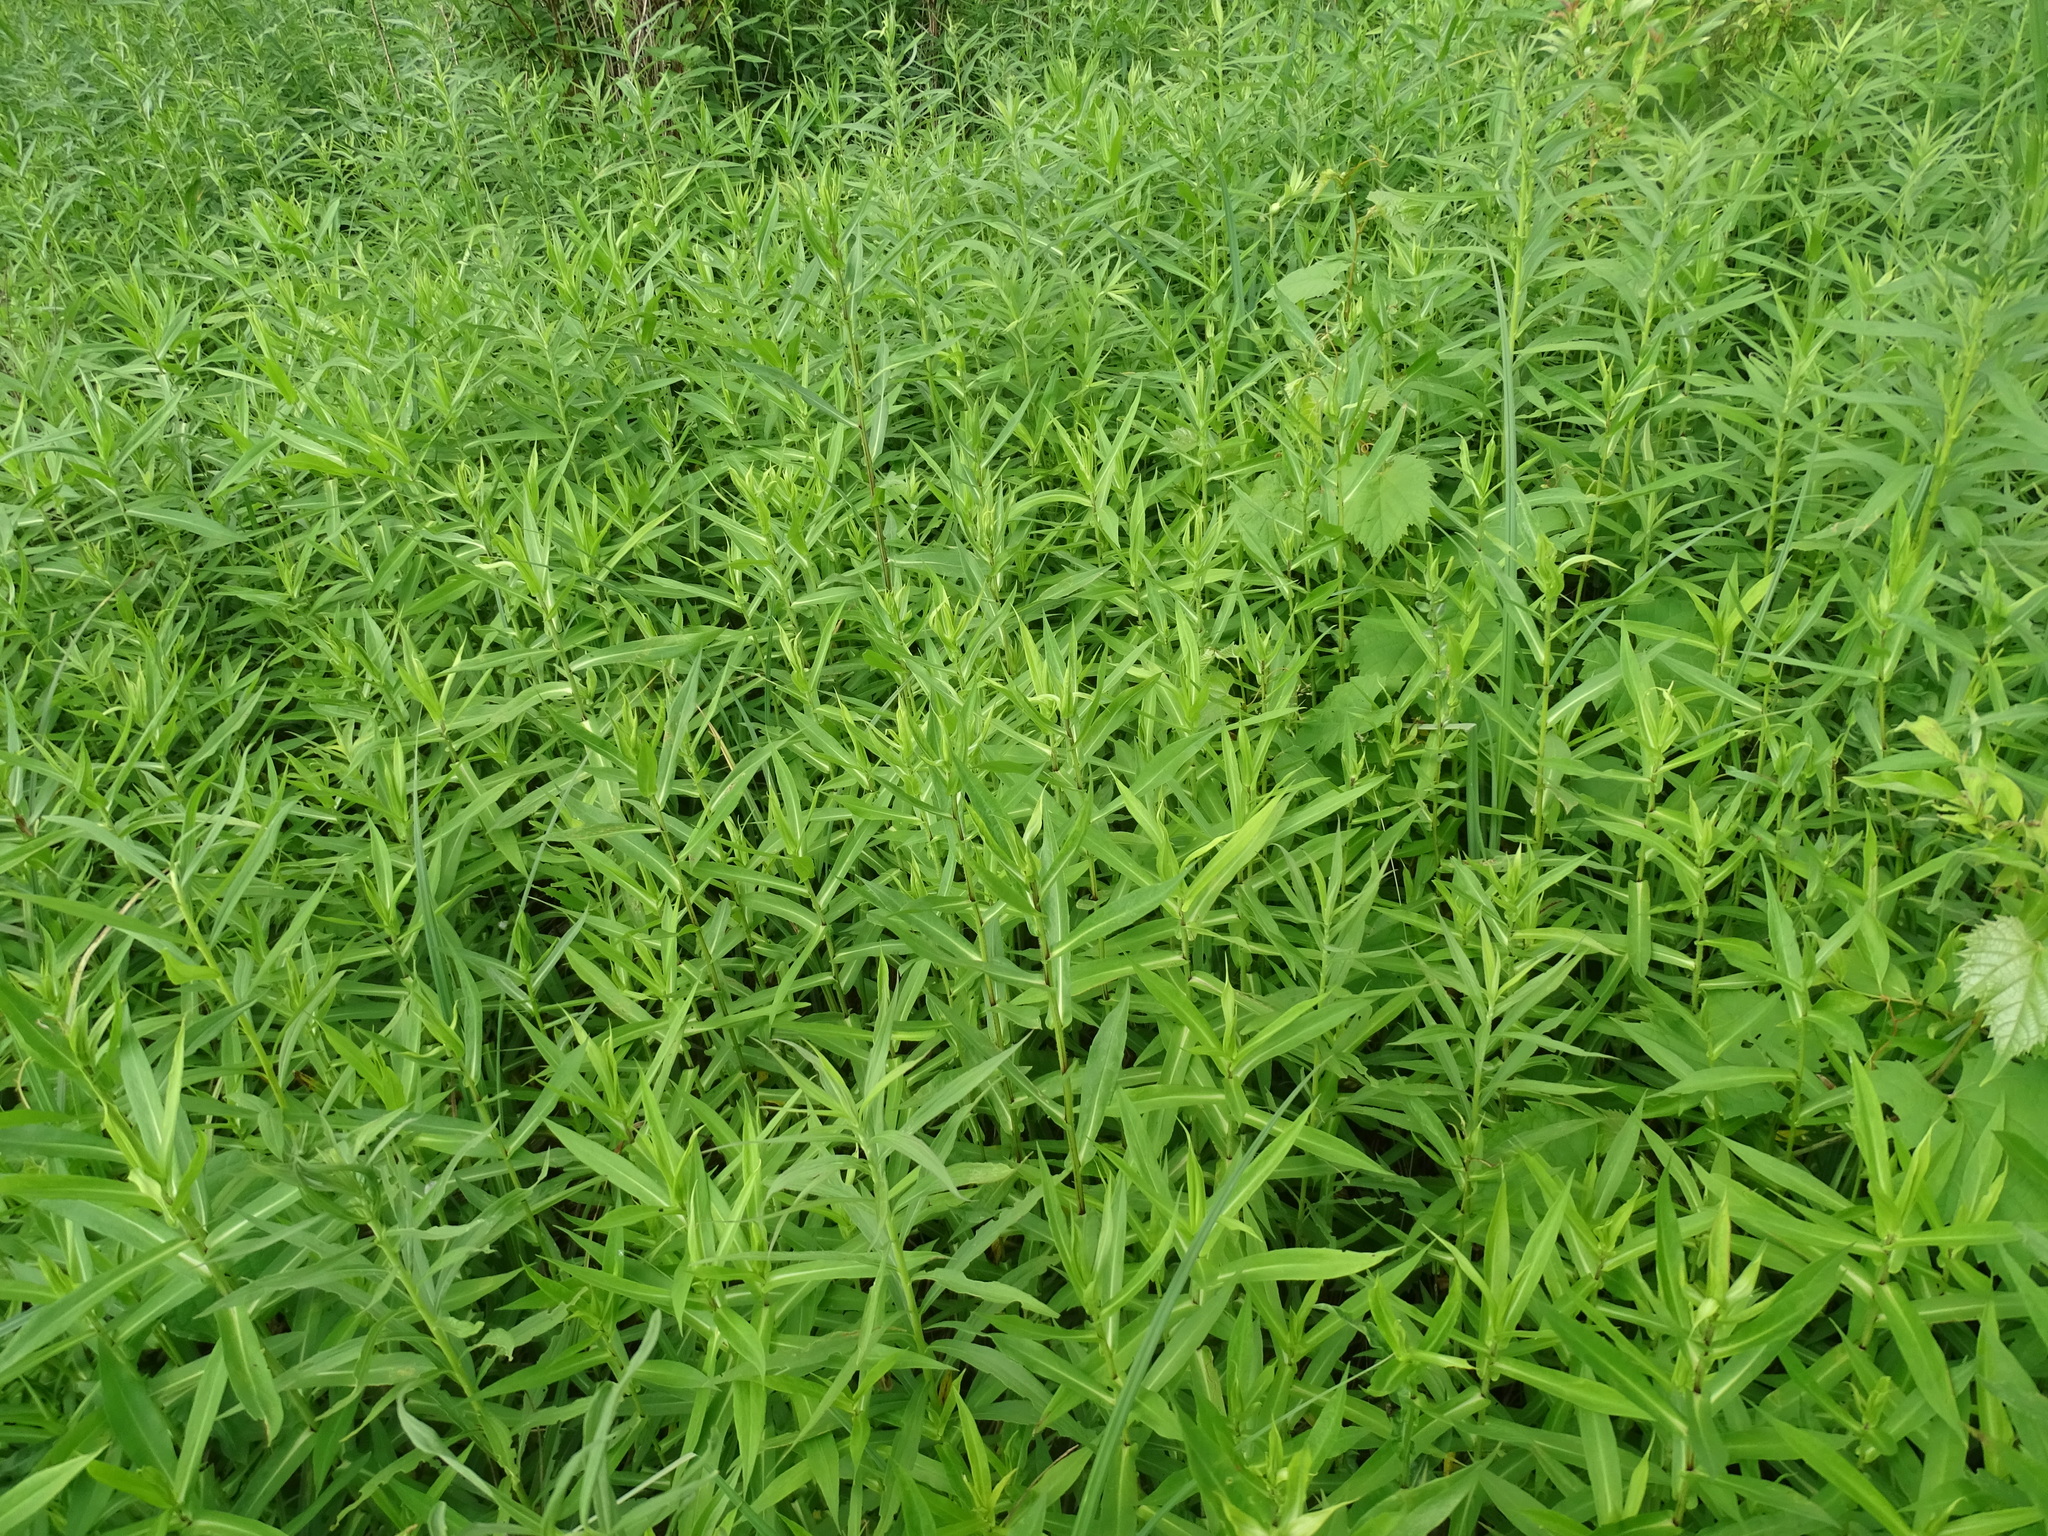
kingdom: Plantae
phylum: Tracheophyta
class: Magnoliopsida
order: Asterales
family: Asteraceae
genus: Symphyotrichum
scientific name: Symphyotrichum firmum
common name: Shining aster
